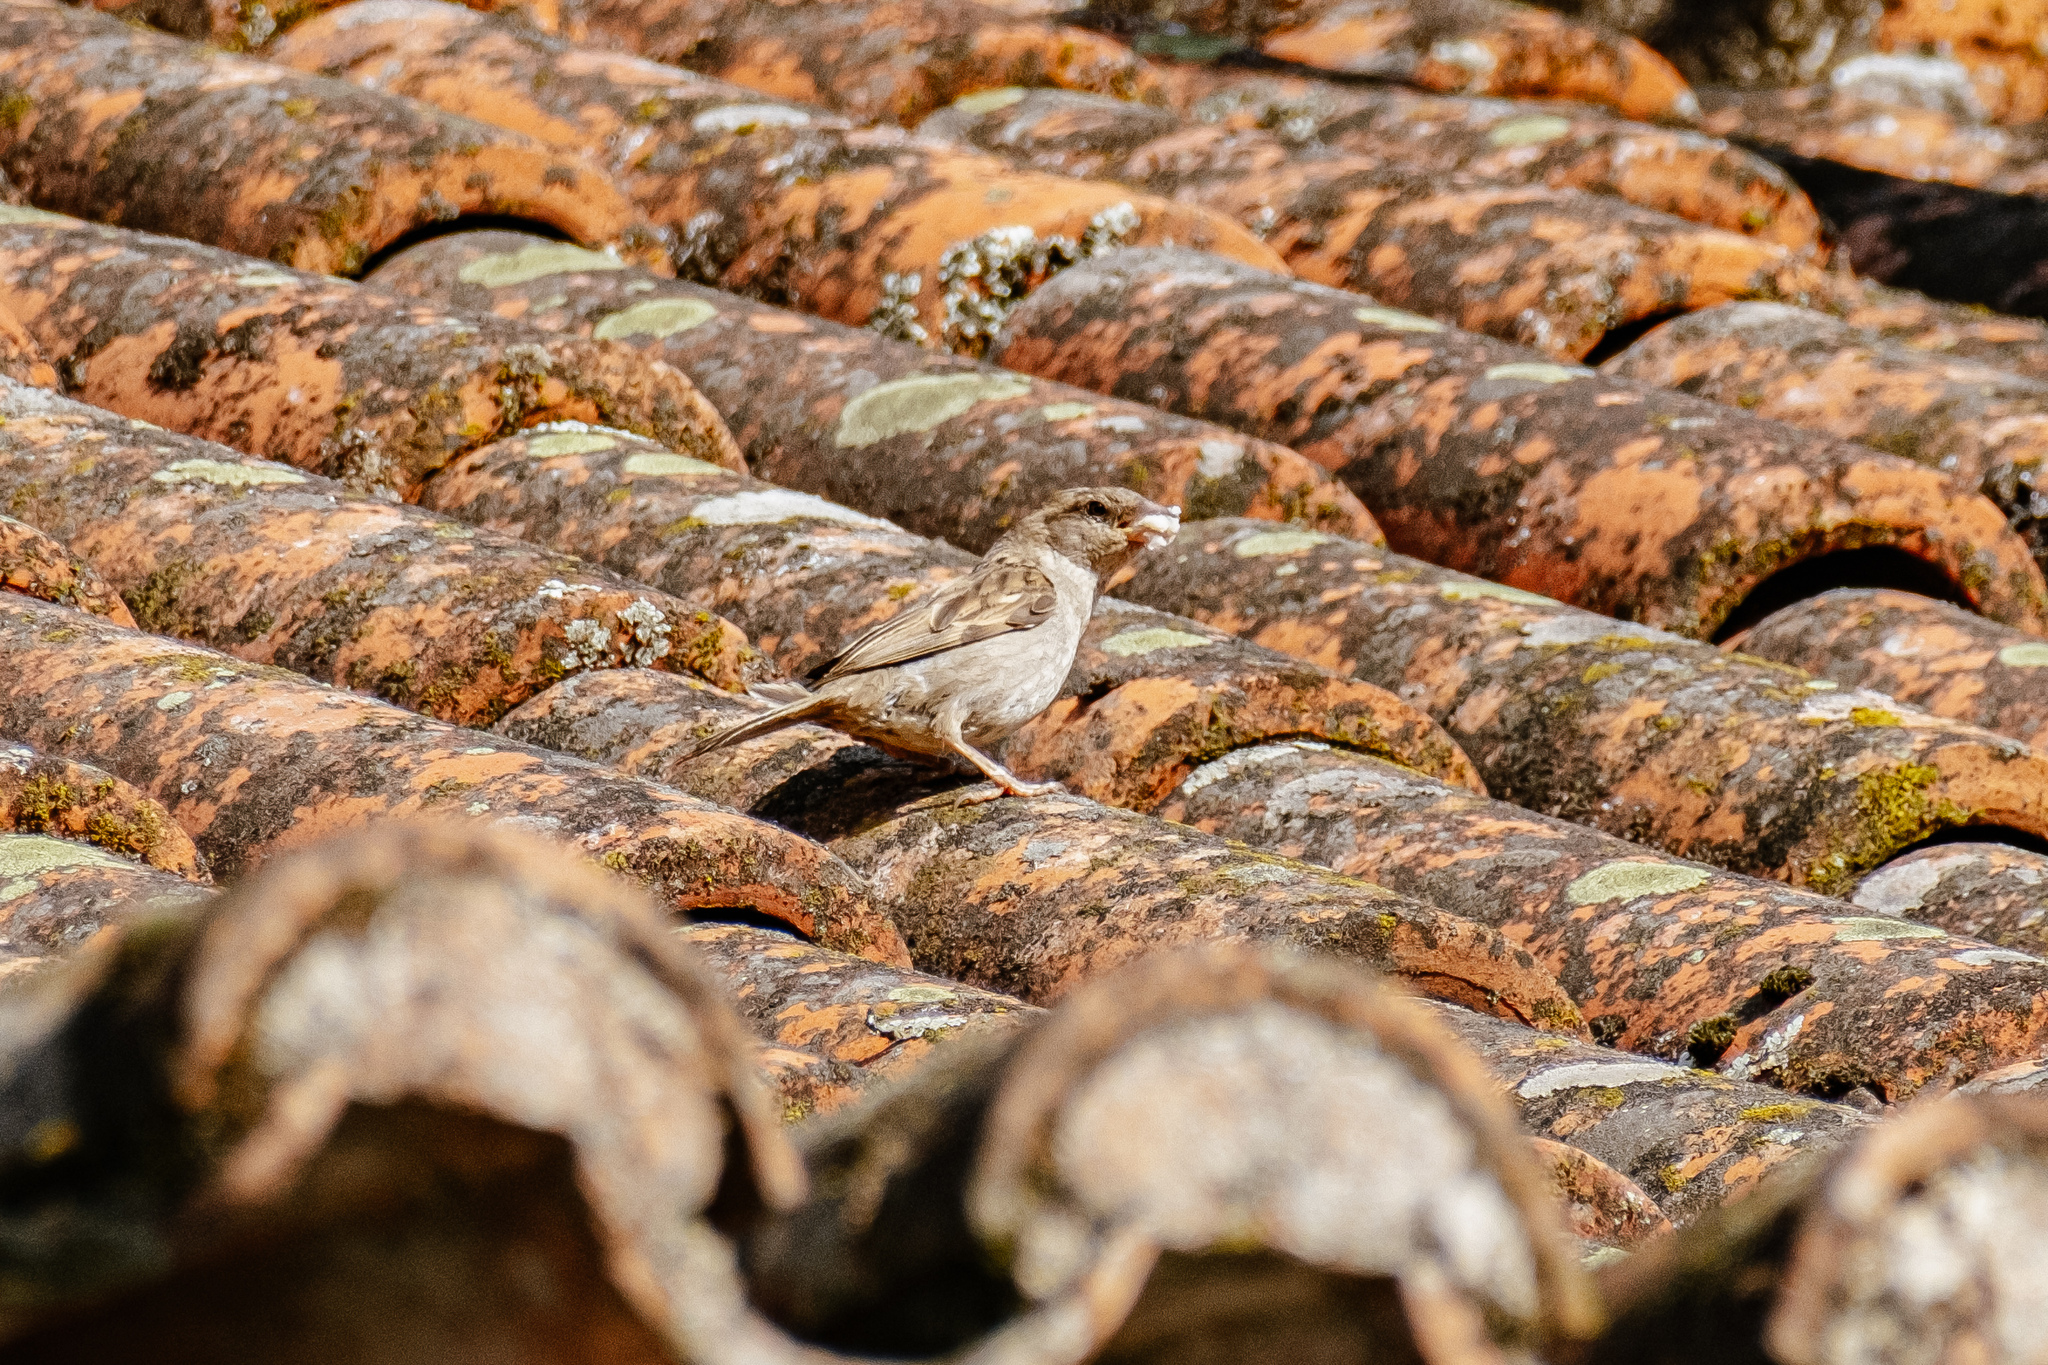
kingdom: Animalia
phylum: Chordata
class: Aves
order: Passeriformes
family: Passeridae
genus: Passer
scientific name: Passer domesticus
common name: House sparrow
